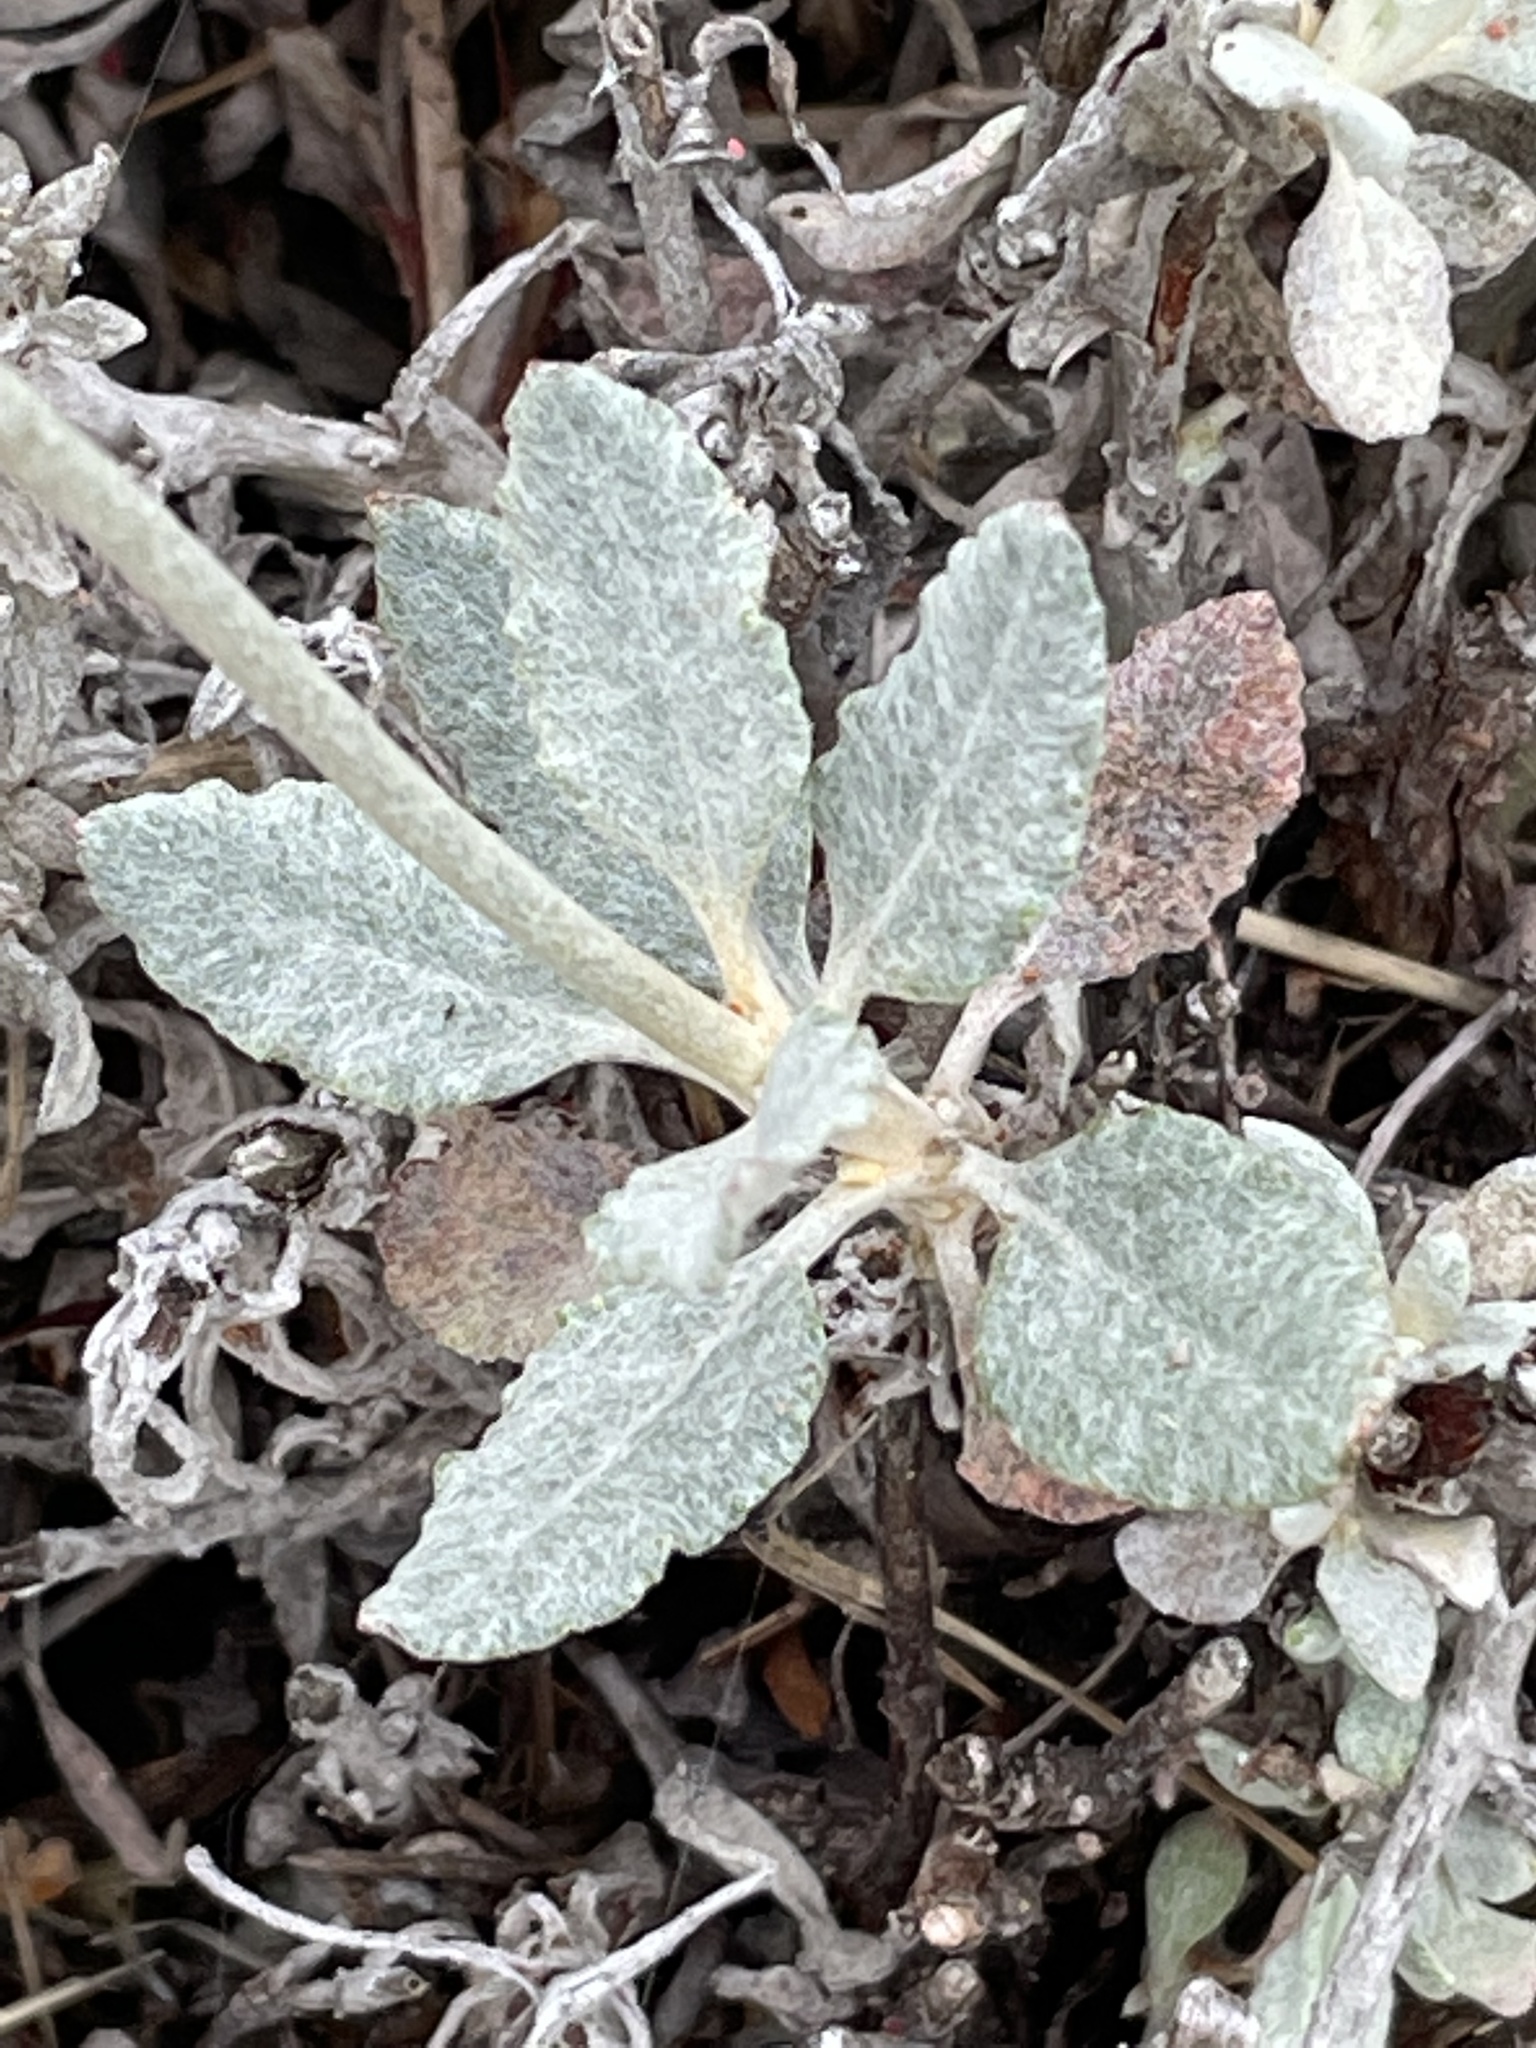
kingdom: Plantae
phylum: Tracheophyta
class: Magnoliopsida
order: Caryophyllales
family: Polygonaceae
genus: Eriogonum
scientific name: Eriogonum elongatum
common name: Long-stem wild buckwheat
